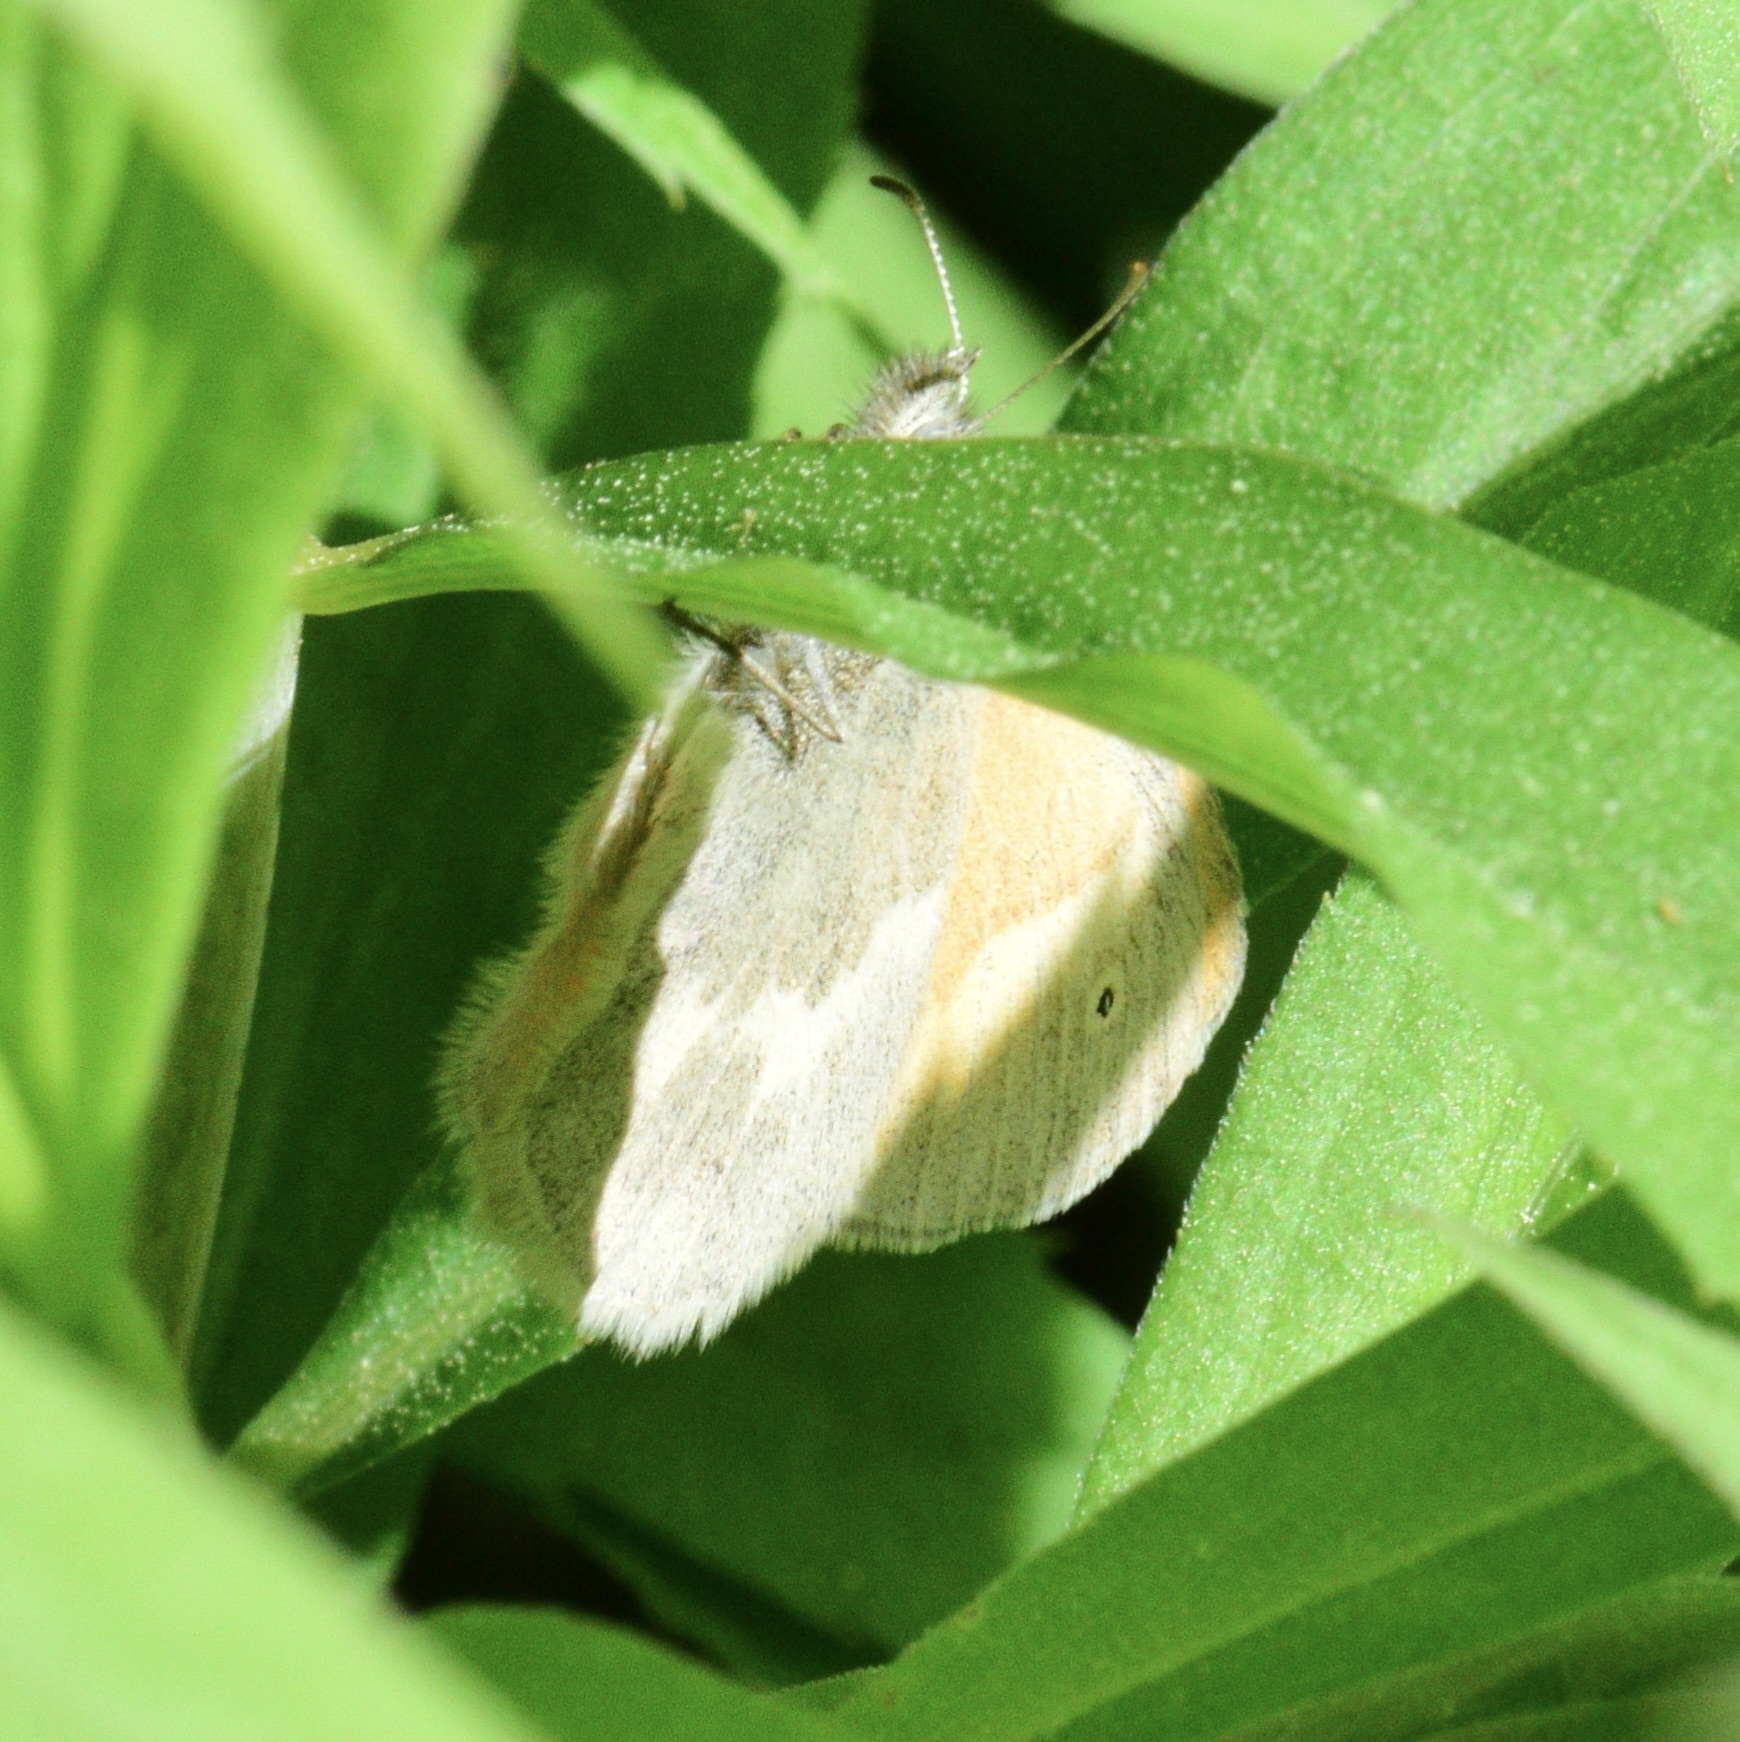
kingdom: Animalia
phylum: Arthropoda
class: Insecta
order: Lepidoptera
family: Nymphalidae
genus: Coenonympha
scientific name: Coenonympha california
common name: Common ringlet
